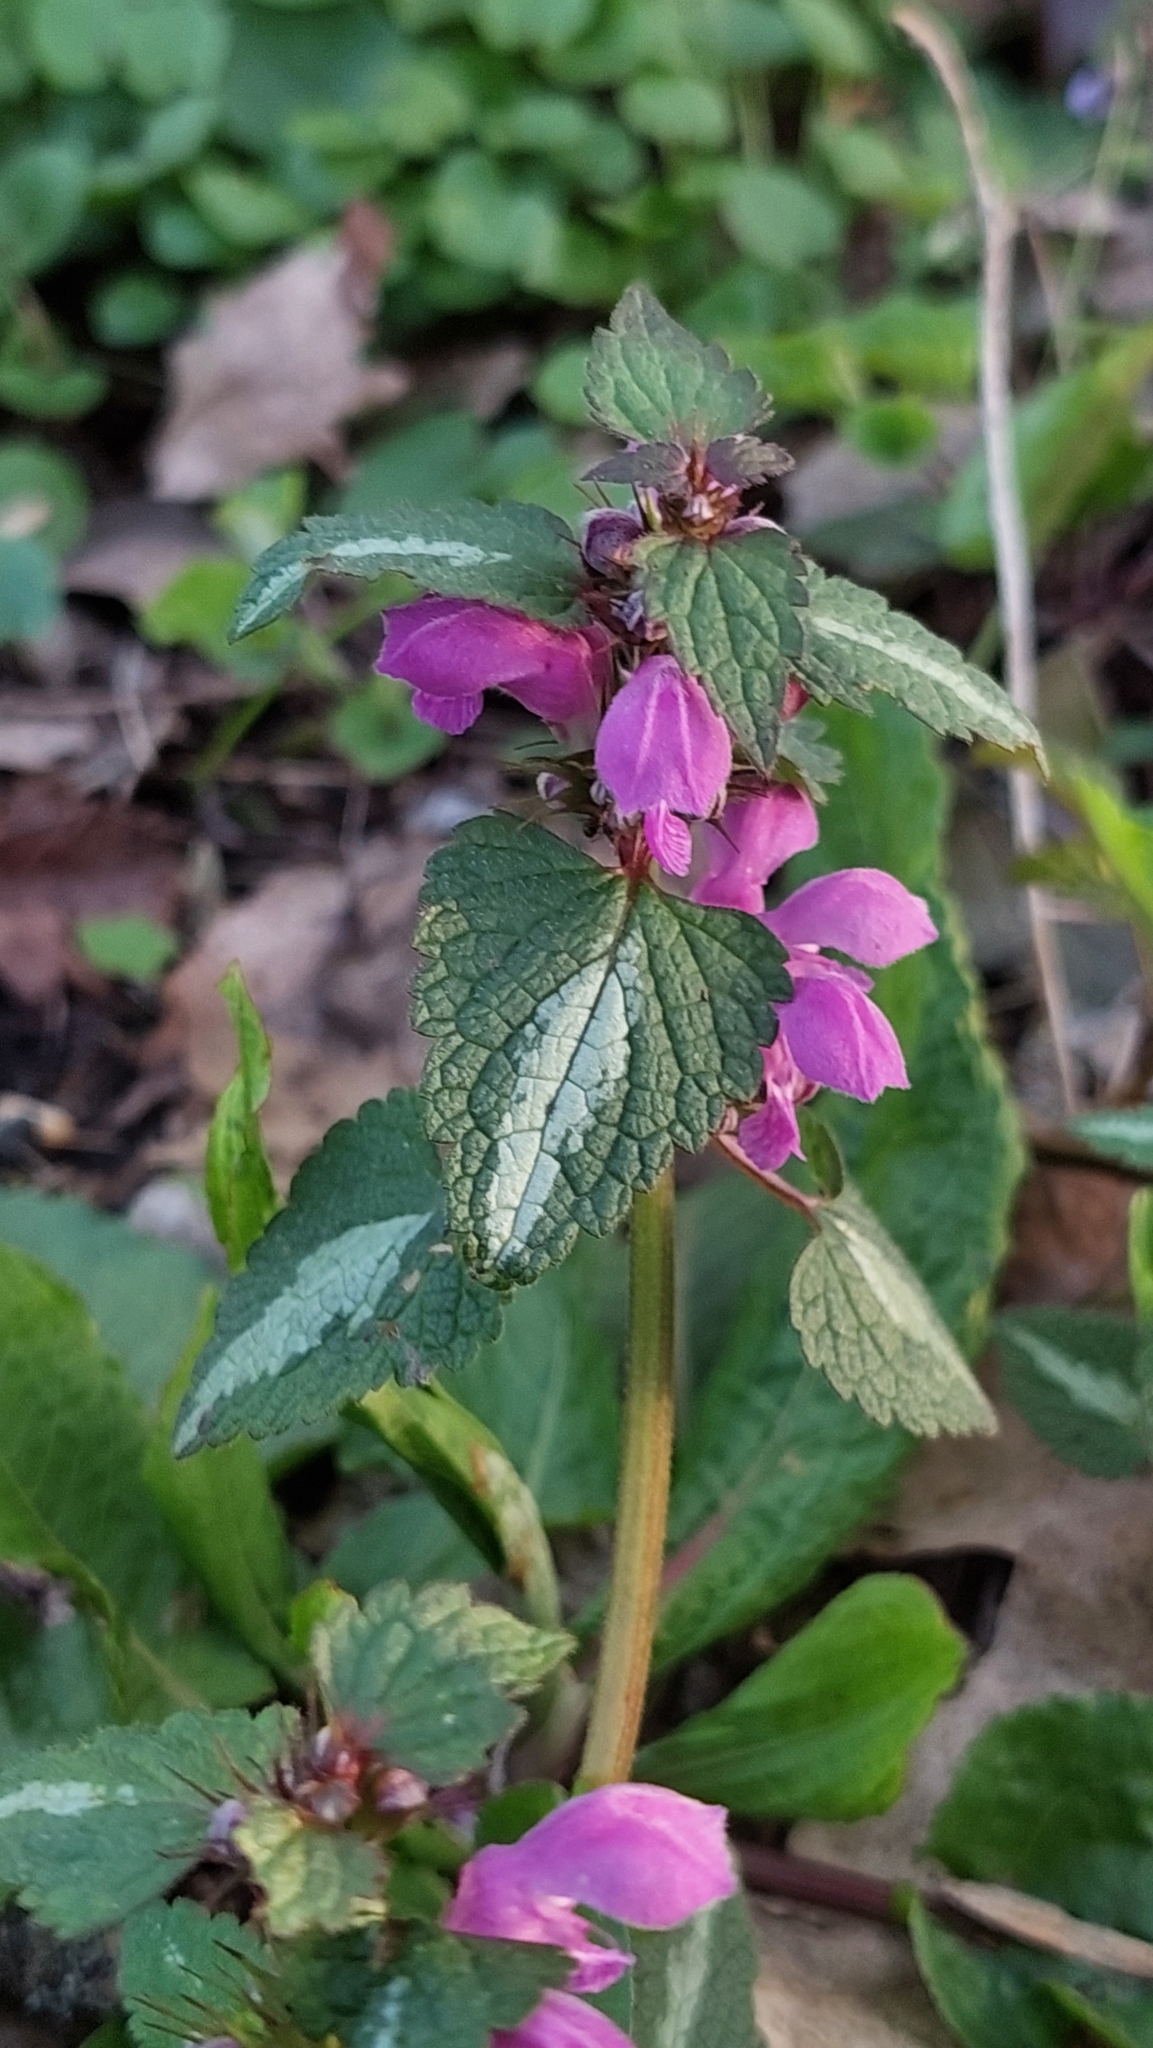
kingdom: Plantae
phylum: Tracheophyta
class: Magnoliopsida
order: Lamiales
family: Lamiaceae
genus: Lamium
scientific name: Lamium maculatum
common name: Spotted dead-nettle
